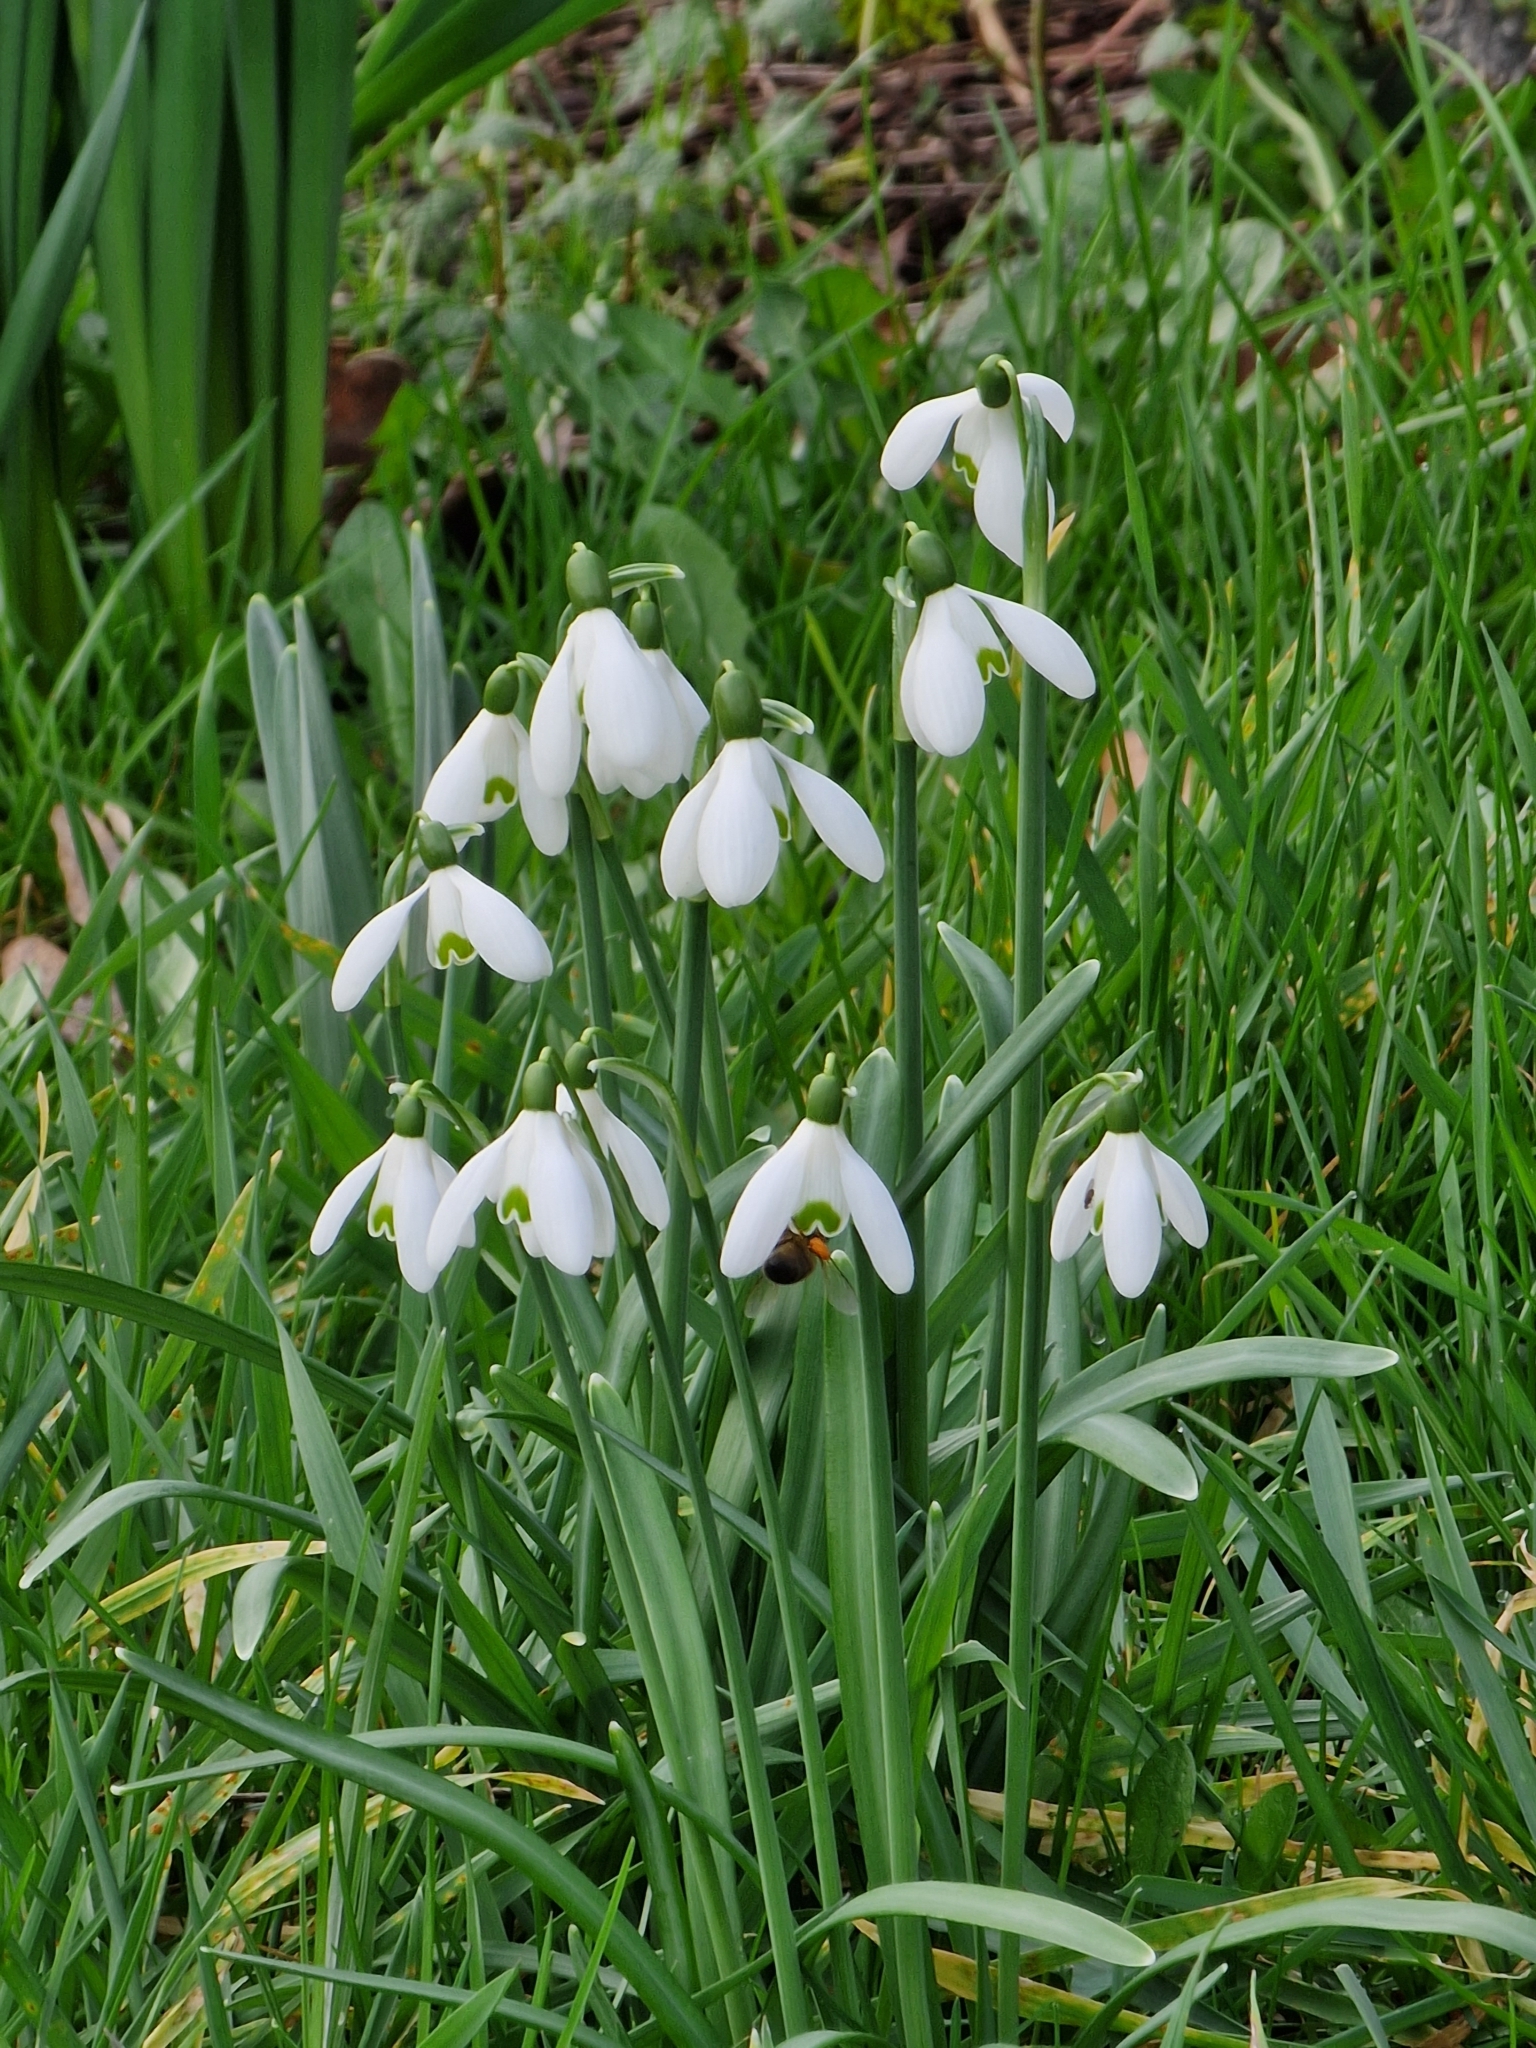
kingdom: Animalia
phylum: Arthropoda
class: Insecta
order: Hymenoptera
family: Apidae
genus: Apis
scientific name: Apis mellifera
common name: Honey bee
